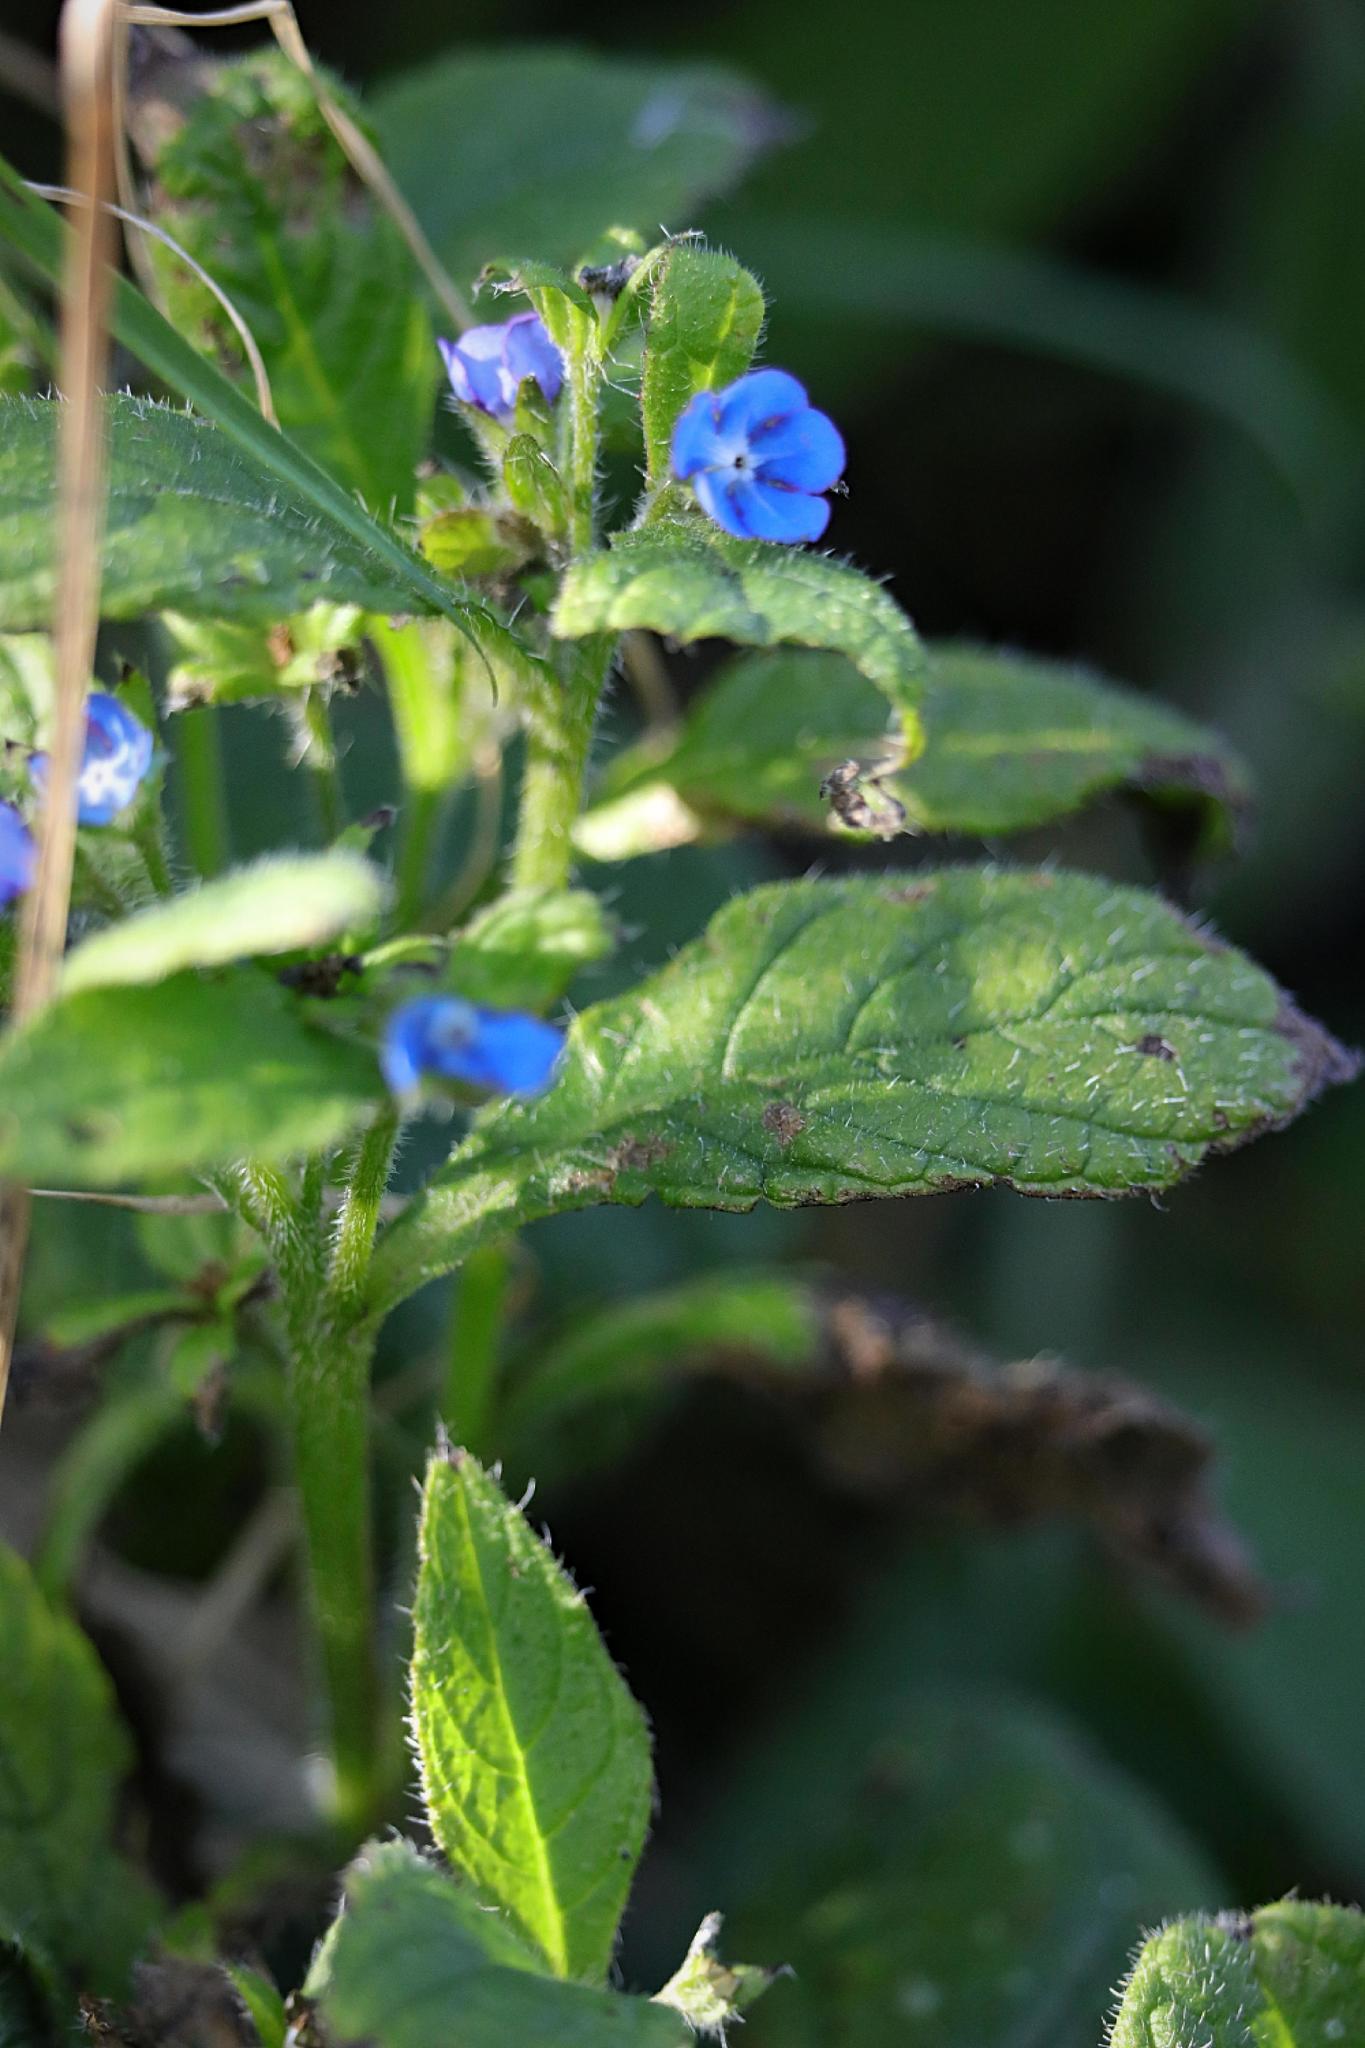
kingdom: Plantae
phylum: Tracheophyta
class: Magnoliopsida
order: Boraginales
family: Boraginaceae
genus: Pentaglottis
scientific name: Pentaglottis sempervirens
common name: Green alkanet
